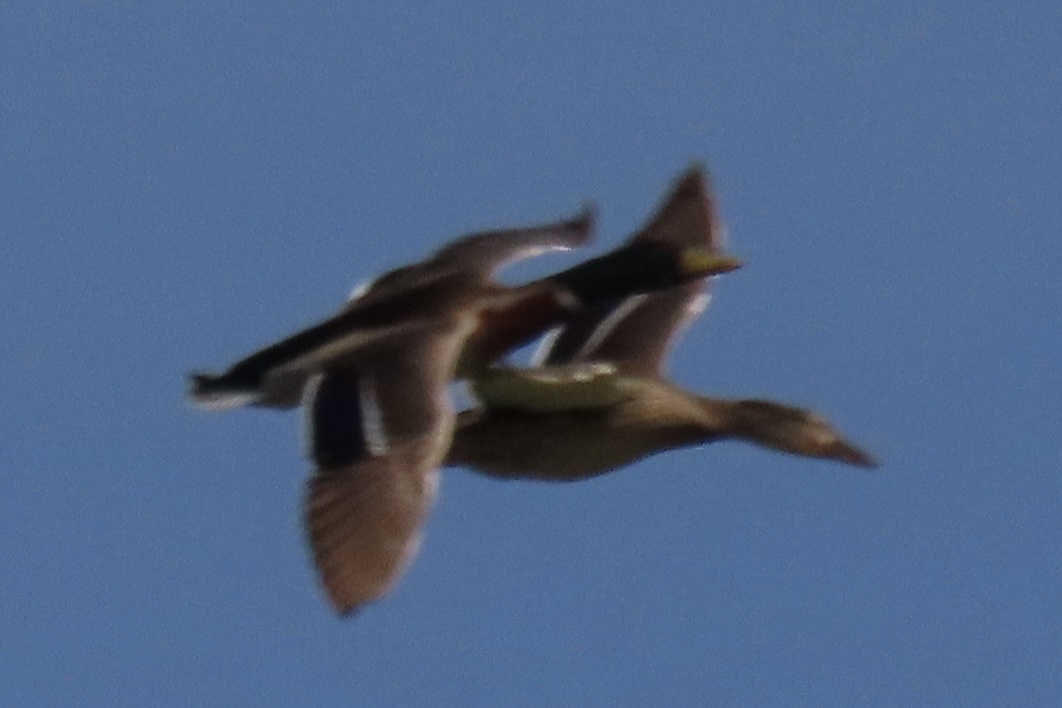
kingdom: Animalia
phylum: Chordata
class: Aves
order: Anseriformes
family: Anatidae
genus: Anas
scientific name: Anas platyrhynchos
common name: Mallard
